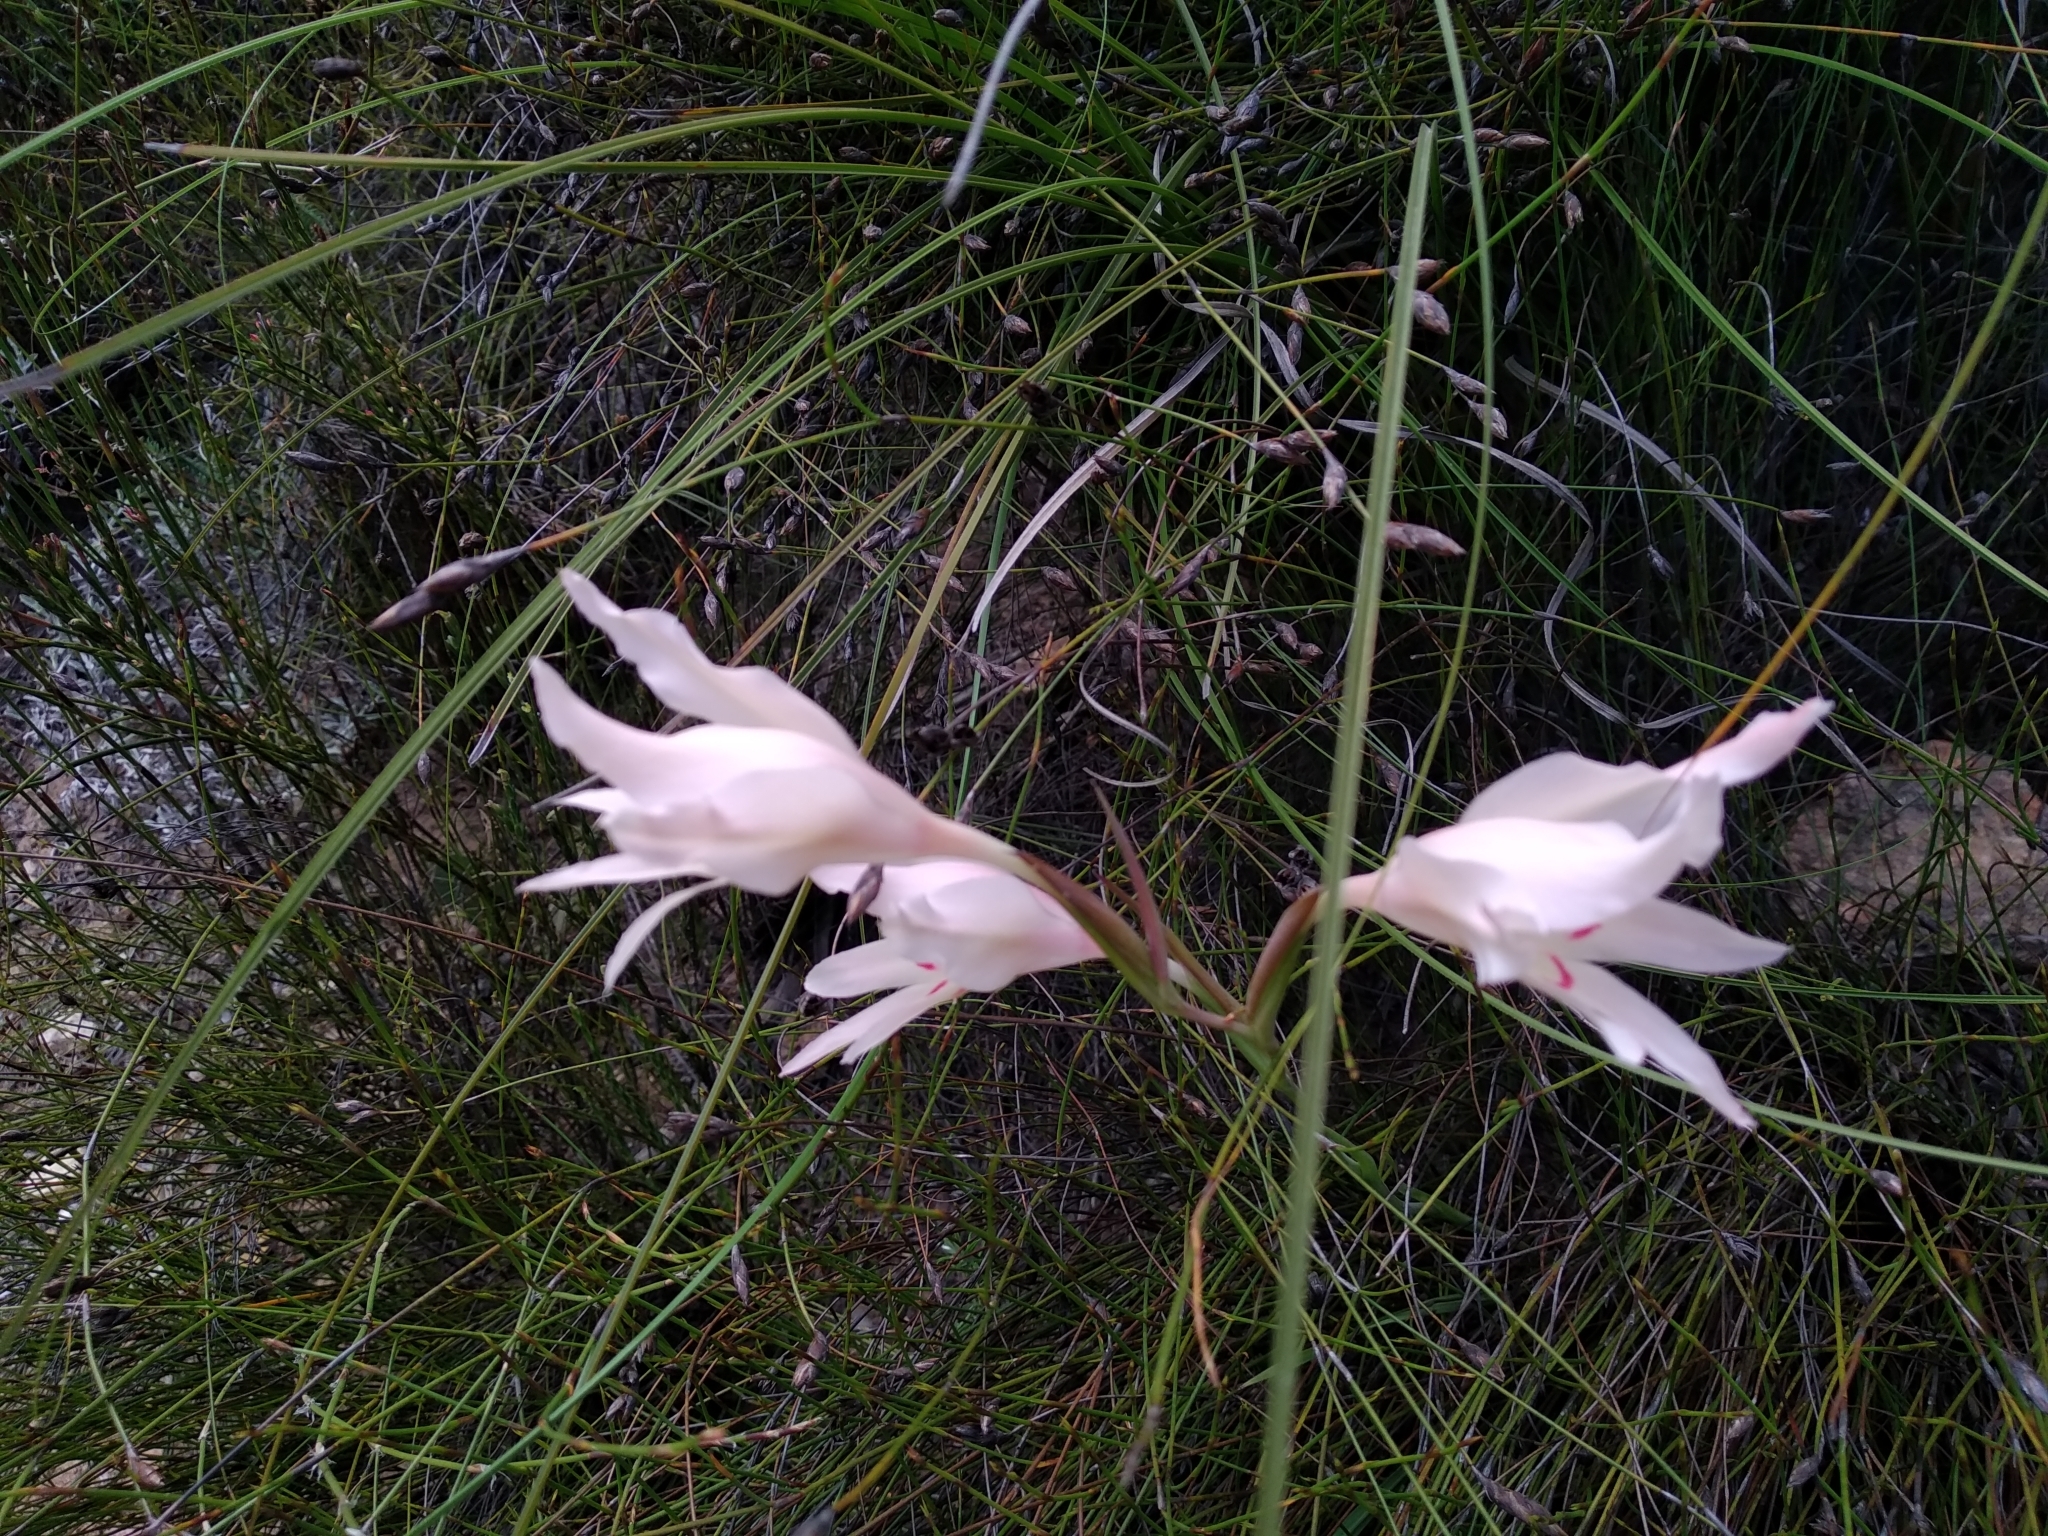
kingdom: Plantae
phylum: Tracheophyta
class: Liliopsida
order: Asparagales
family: Iridaceae
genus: Gladiolus
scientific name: Gladiolus carneus
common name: Painted-lady
